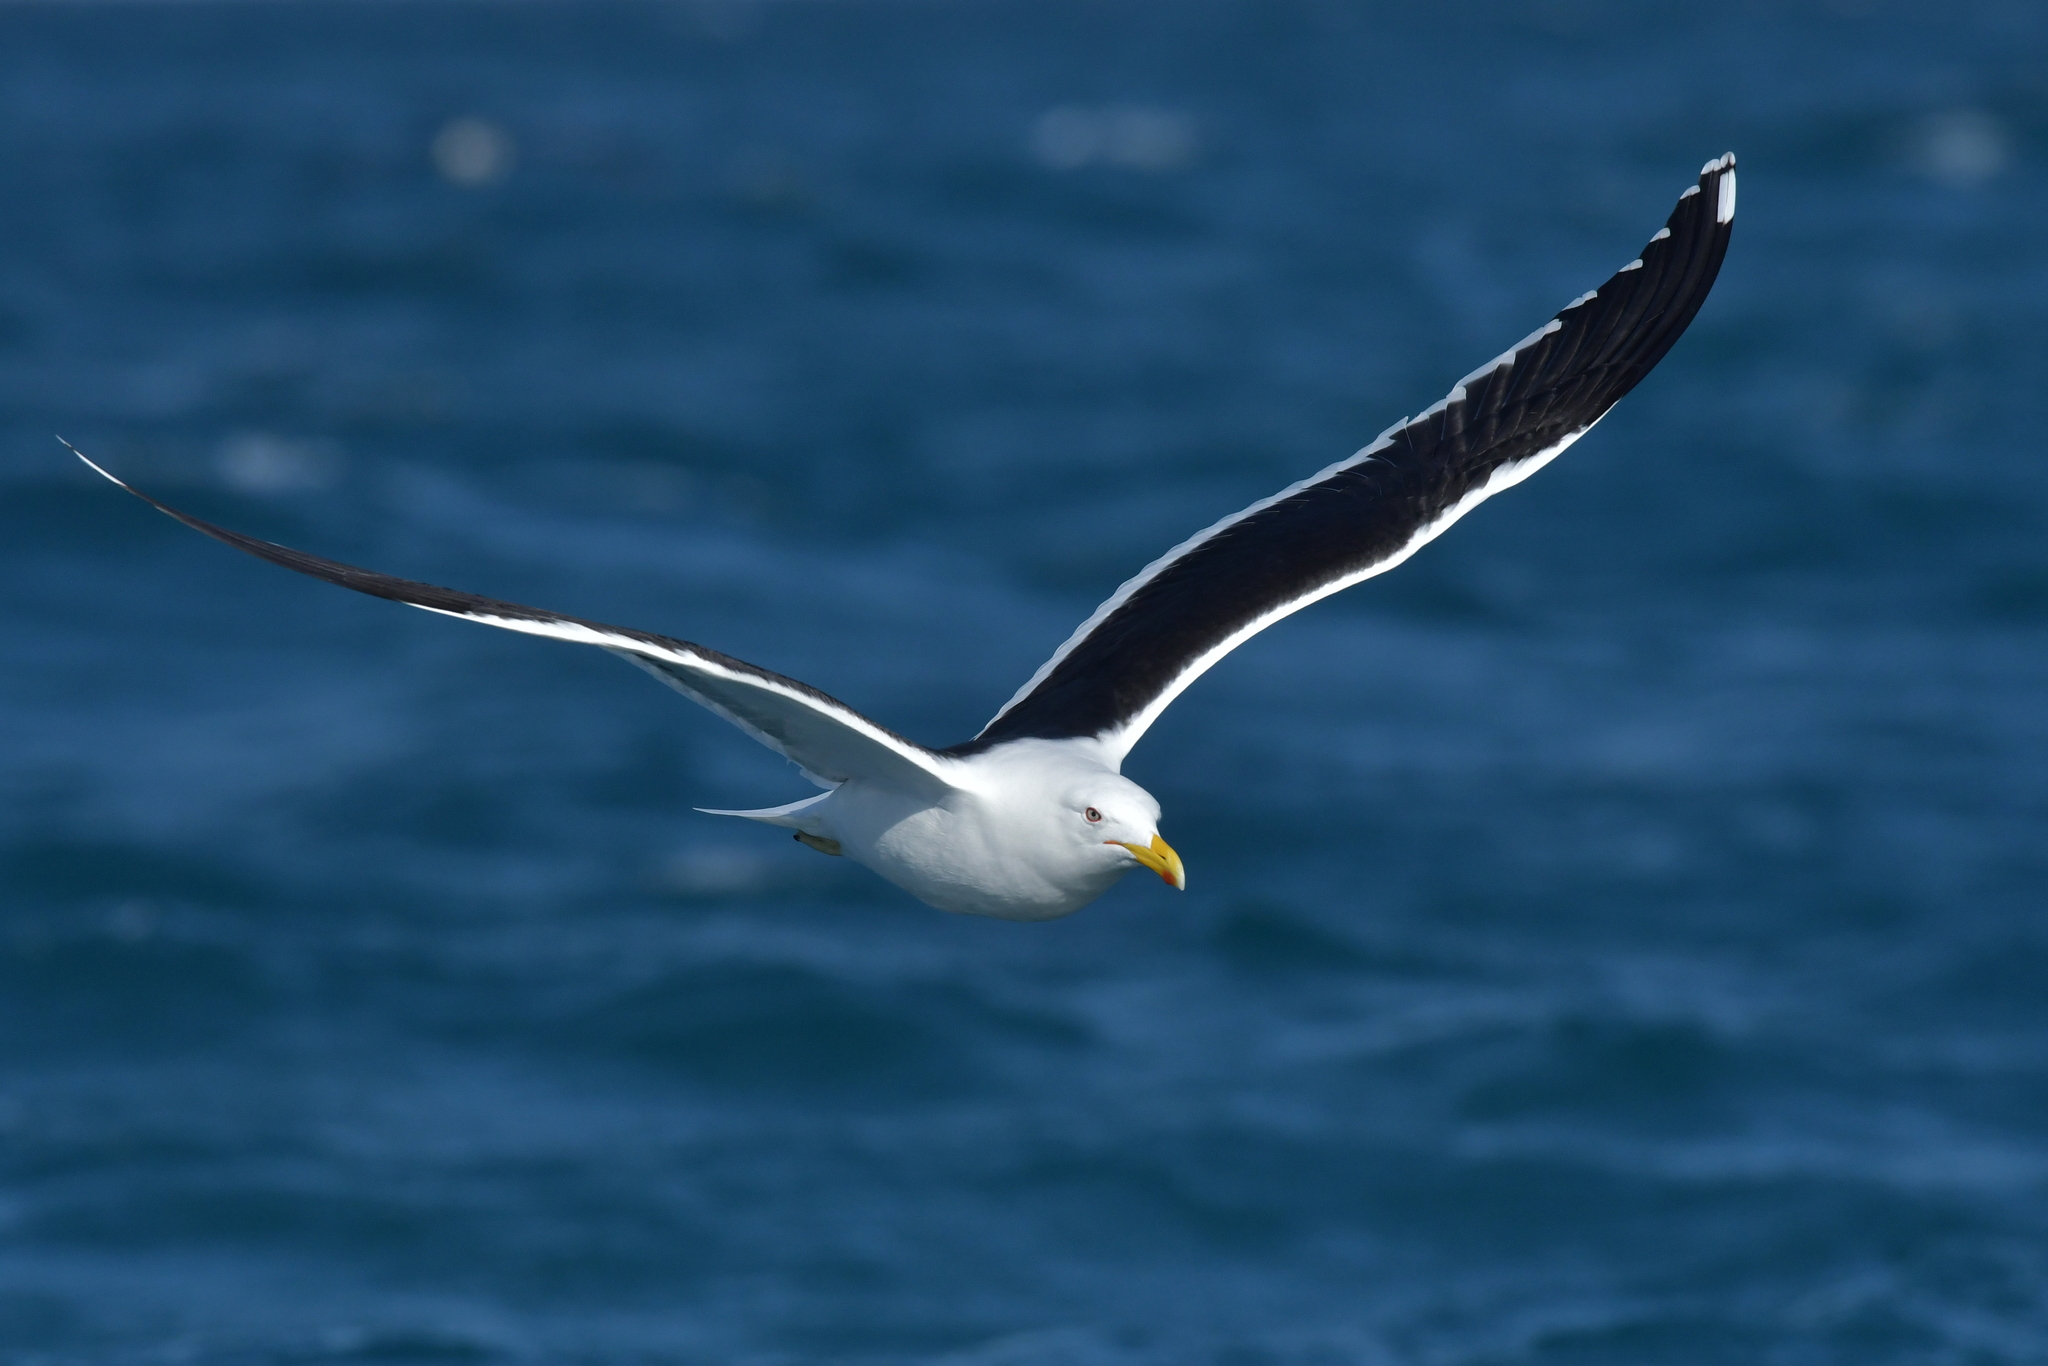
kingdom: Animalia
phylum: Chordata
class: Aves
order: Charadriiformes
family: Laridae
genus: Larus
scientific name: Larus dominicanus
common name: Kelp gull
